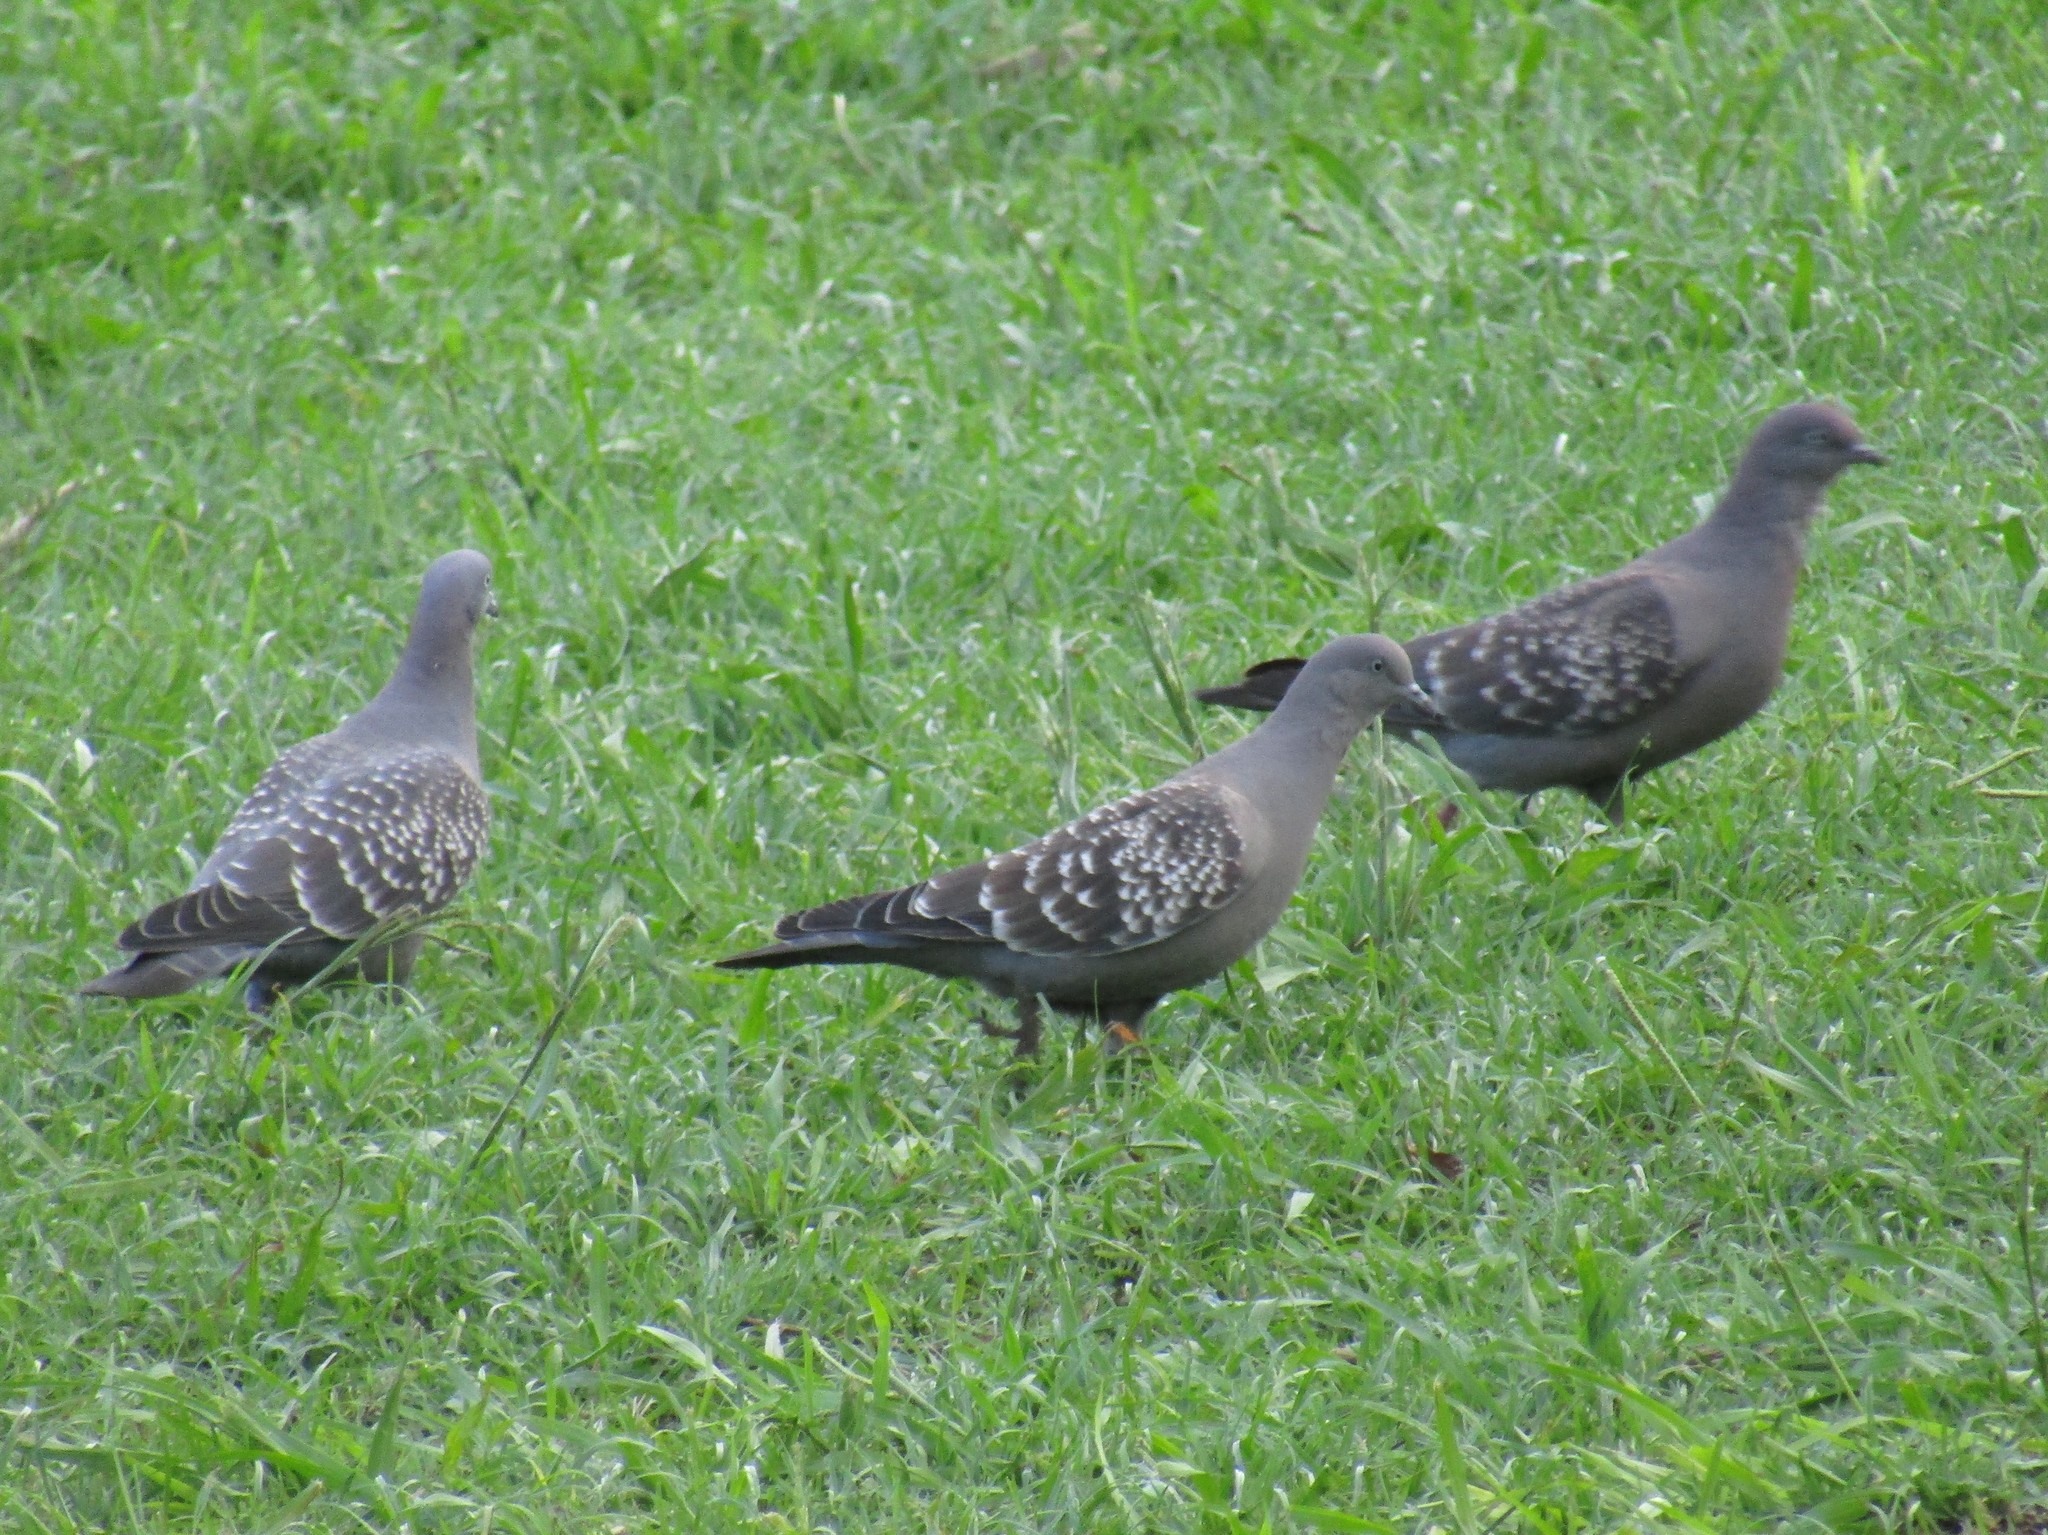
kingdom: Animalia
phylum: Chordata
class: Aves
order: Columbiformes
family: Columbidae
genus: Patagioenas
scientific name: Patagioenas maculosa
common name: Spot-winged pigeon
